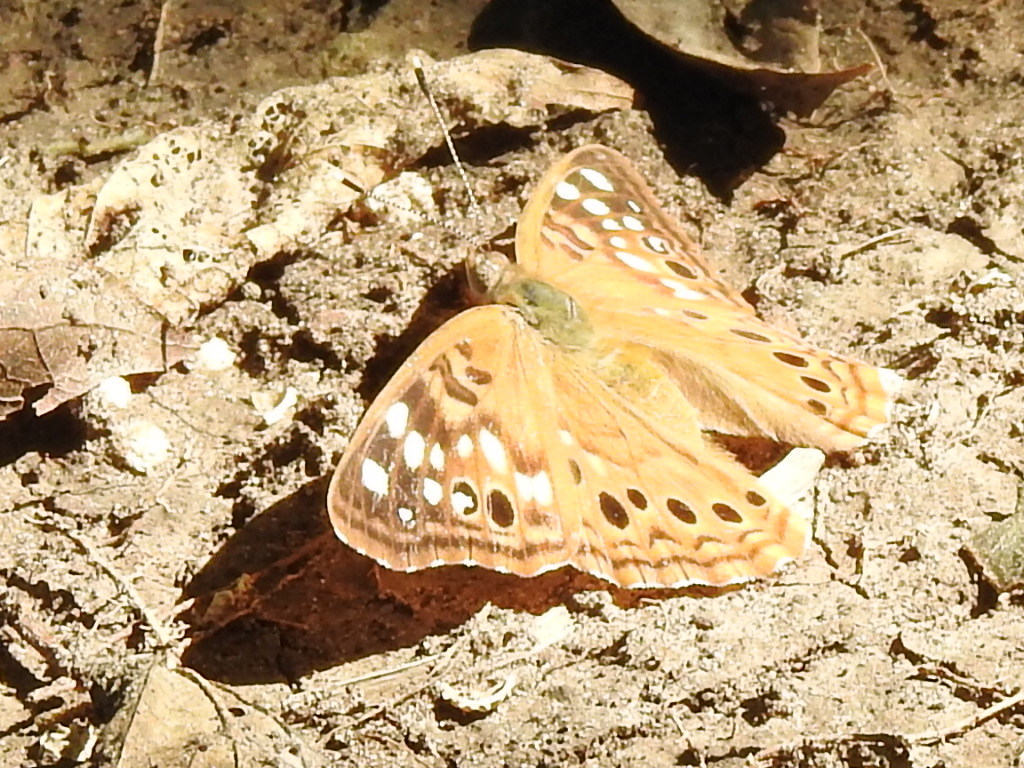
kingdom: Animalia
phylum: Arthropoda
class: Insecta
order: Lepidoptera
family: Nymphalidae
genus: Asterocampa
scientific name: Asterocampa celtis
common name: Hackberry emperor
